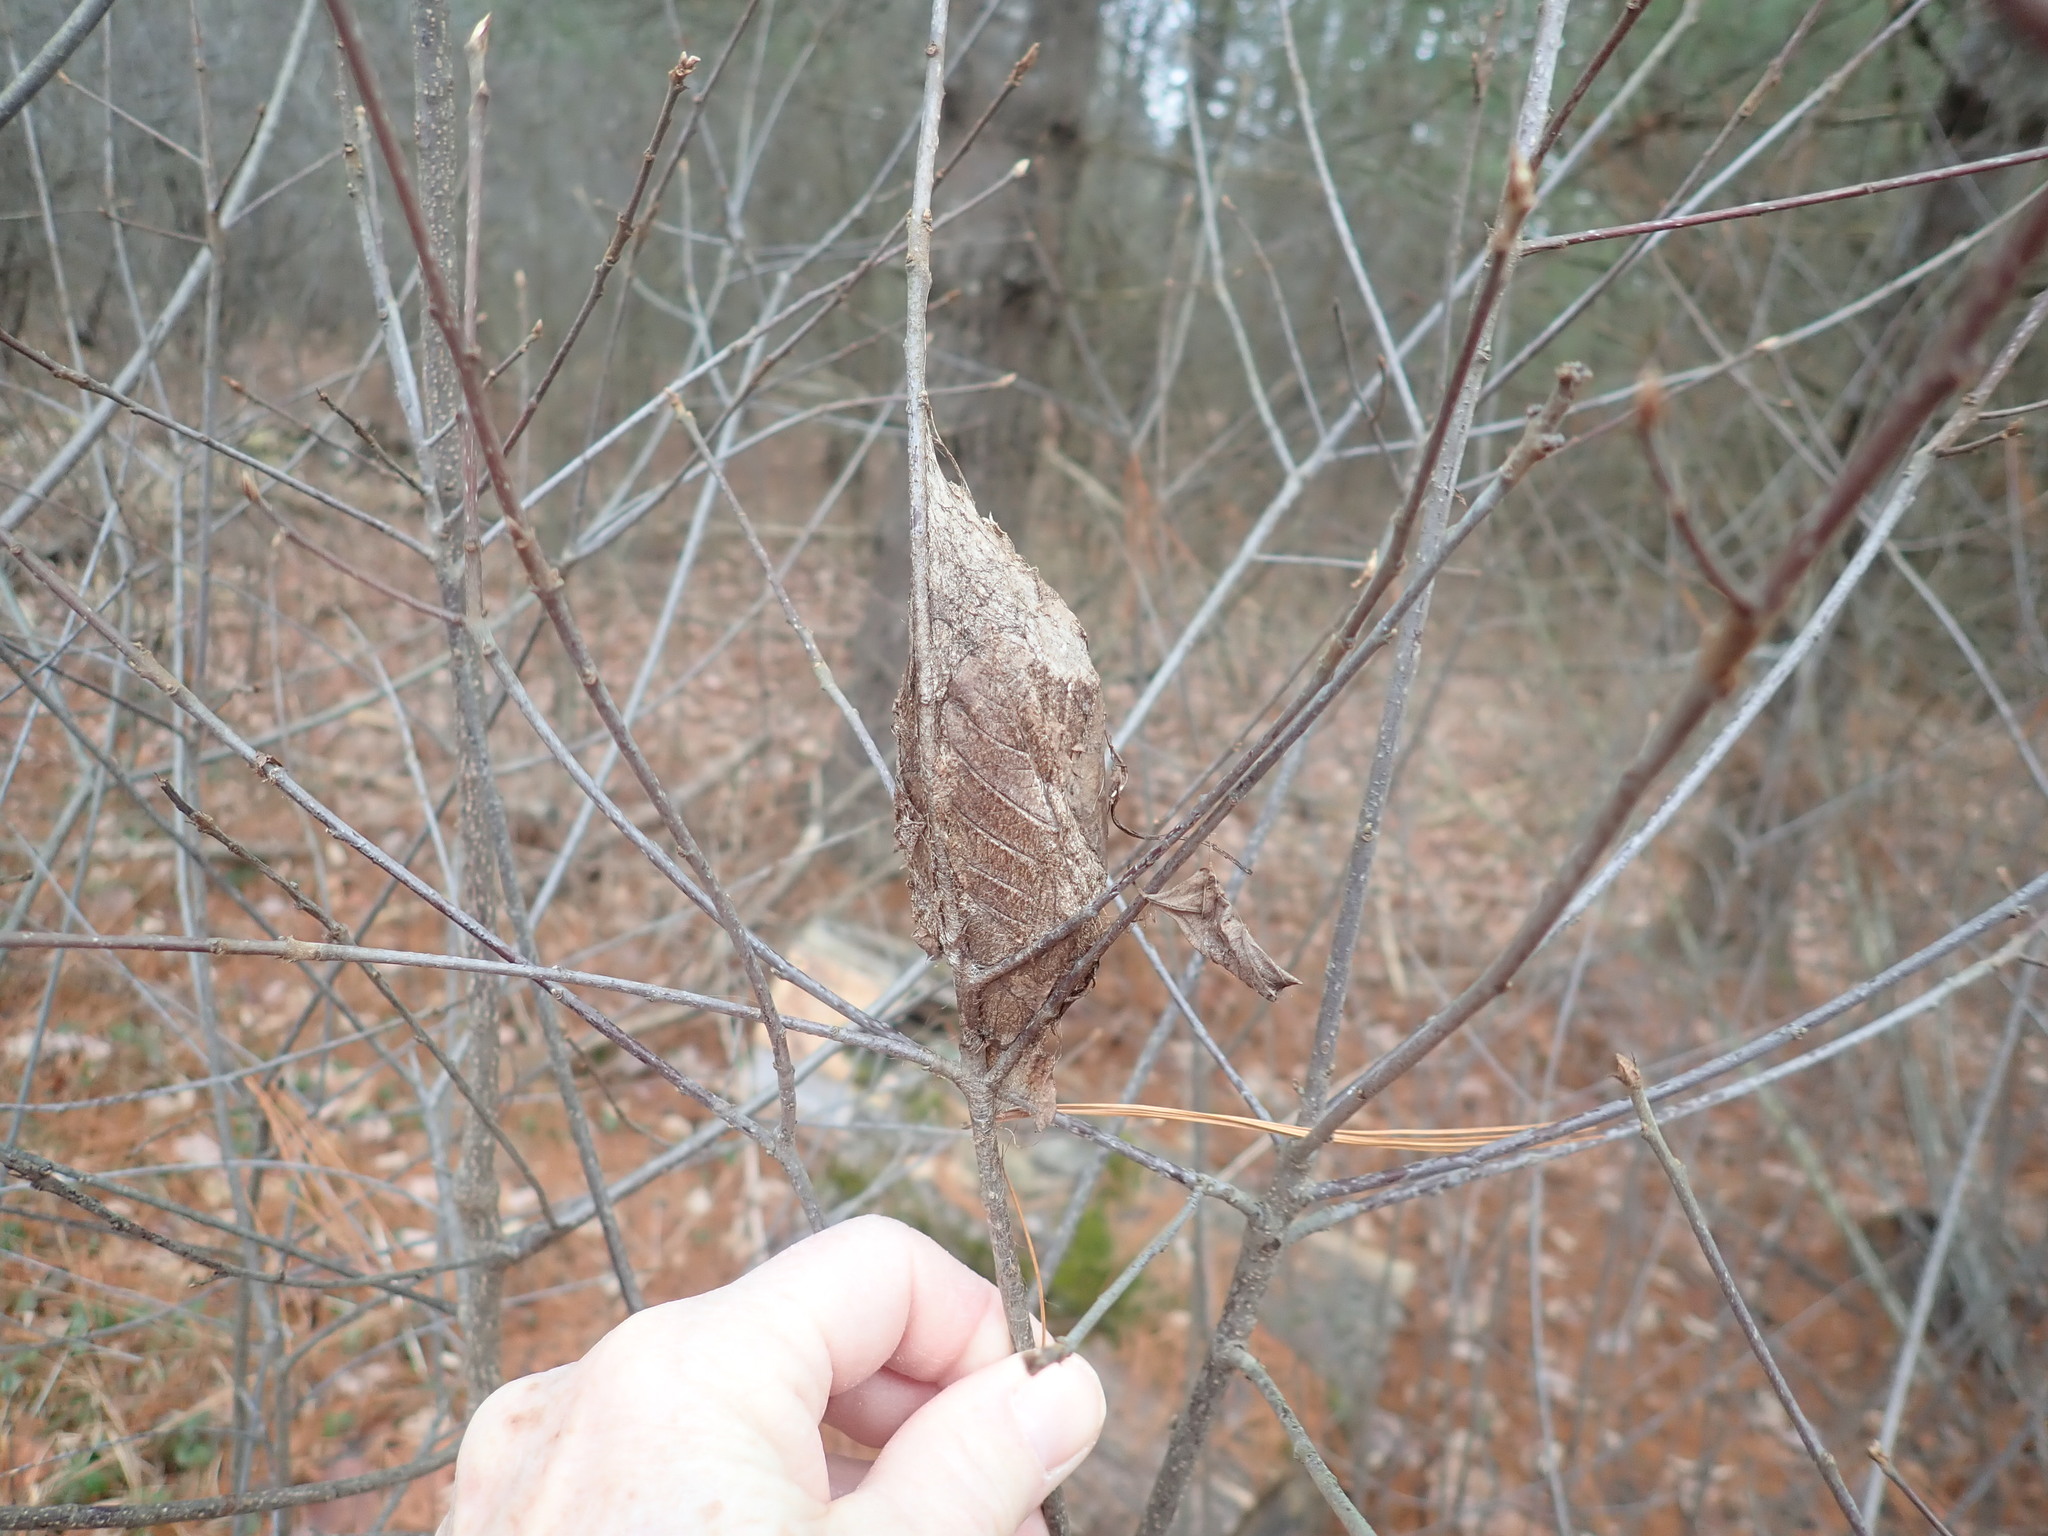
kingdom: Animalia
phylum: Arthropoda
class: Insecta
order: Lepidoptera
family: Saturniidae
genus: Hyalophora
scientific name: Hyalophora cecropia
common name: Cecropia silkmoth
